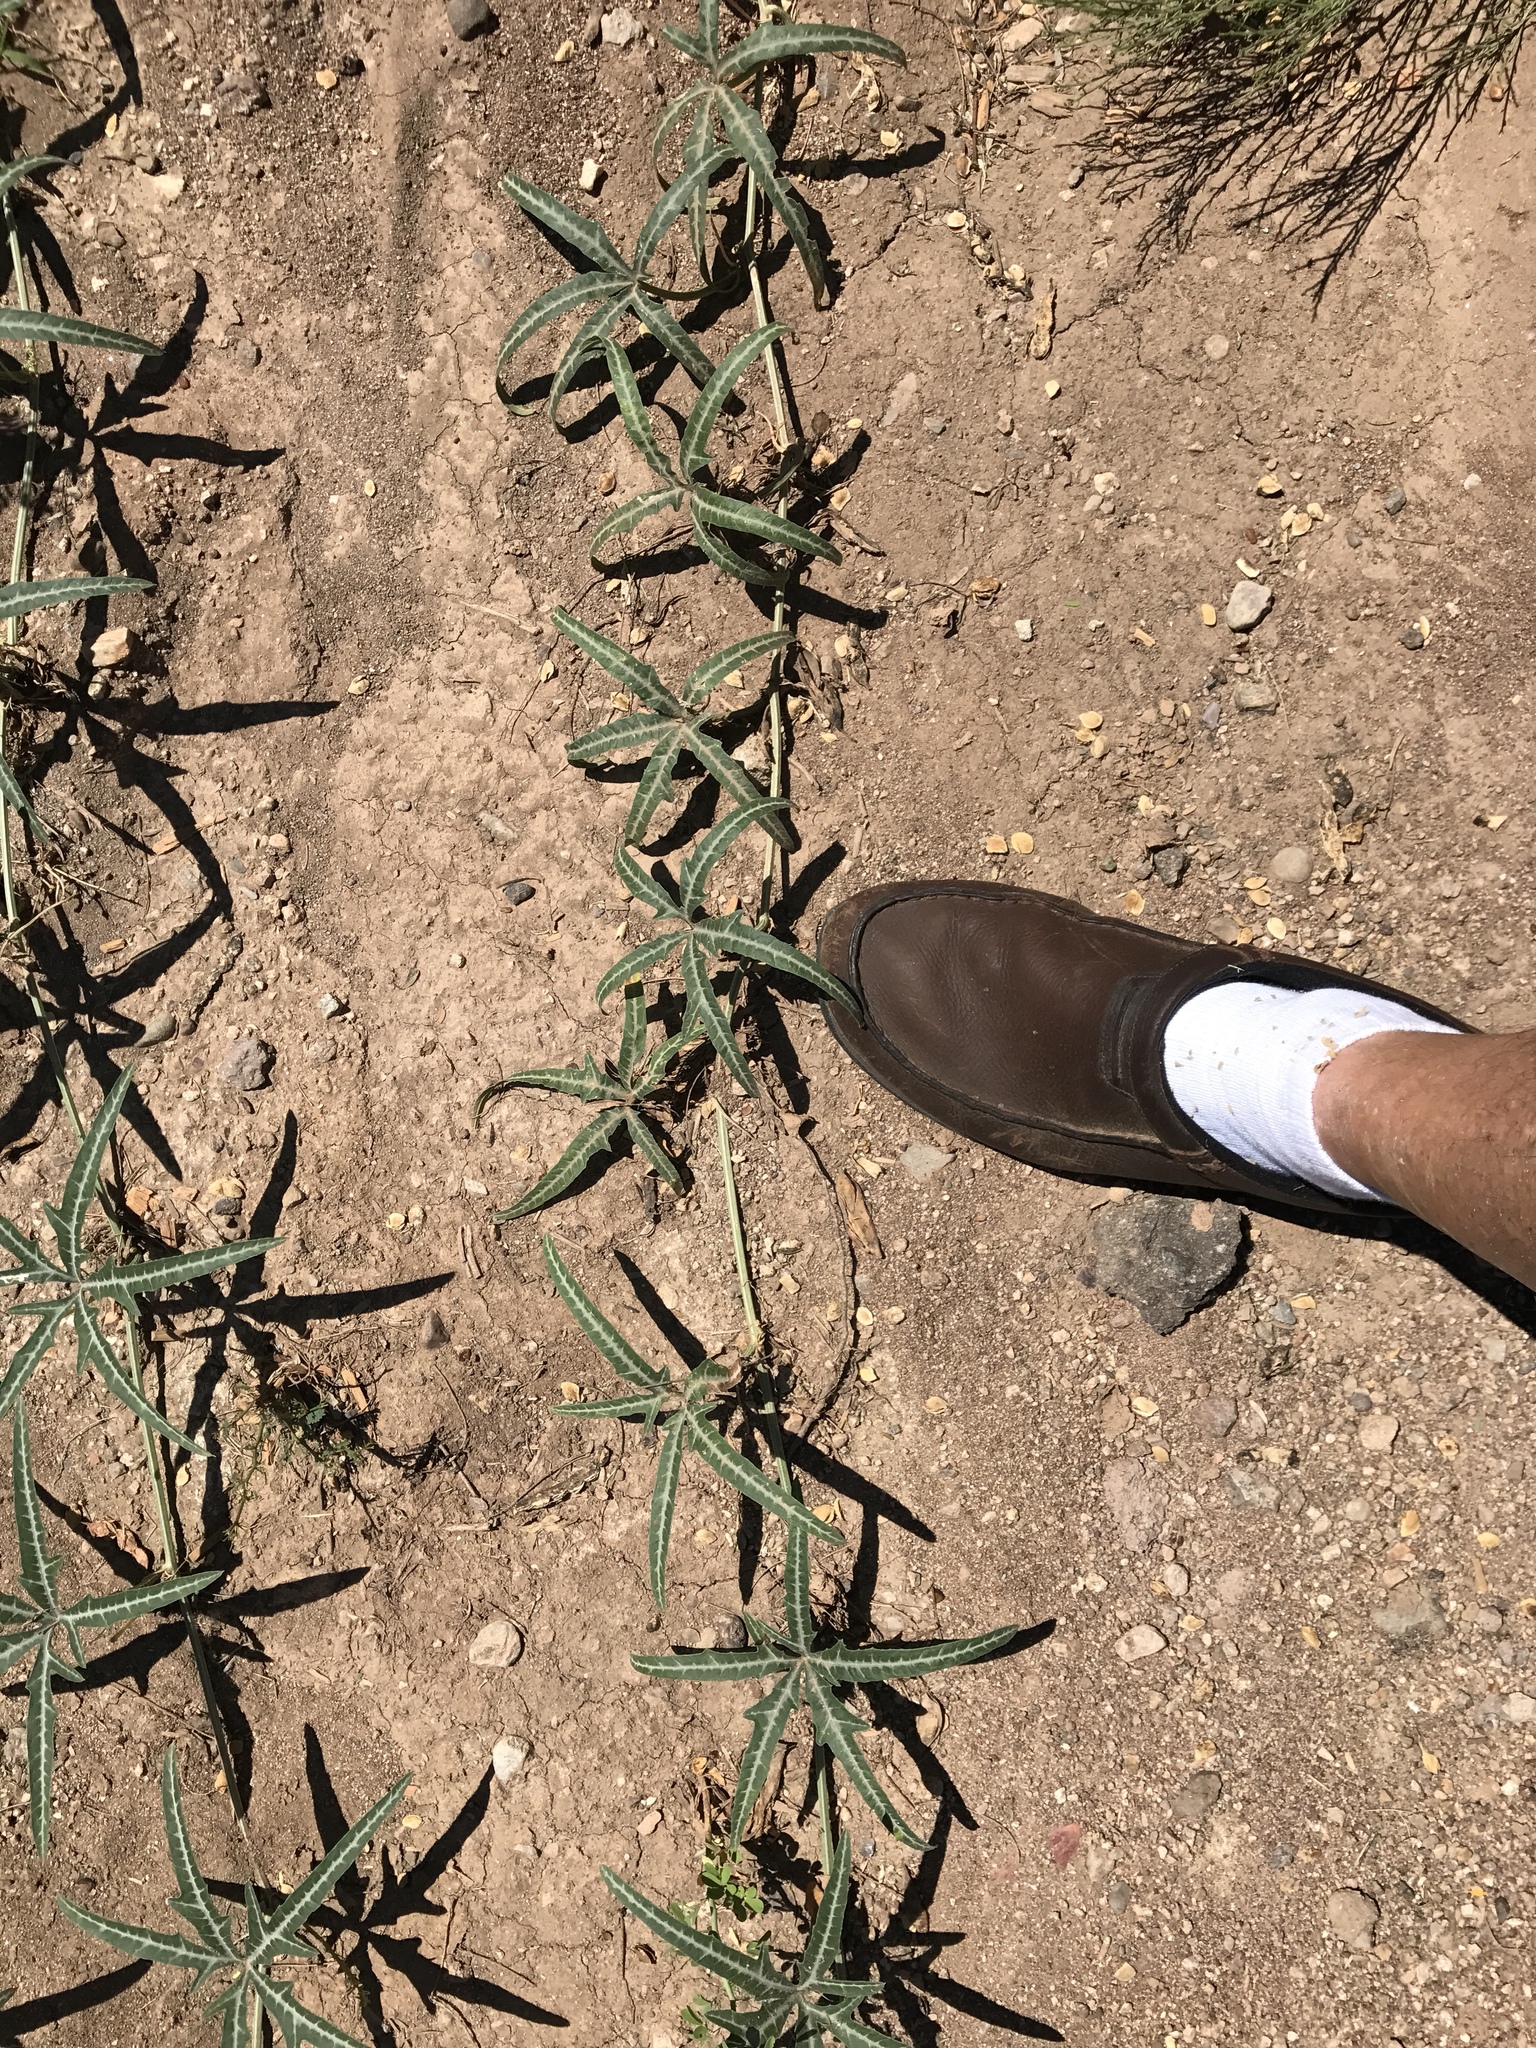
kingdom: Plantae
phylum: Tracheophyta
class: Magnoliopsida
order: Cucurbitales
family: Cucurbitaceae
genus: Cucurbita
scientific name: Cucurbita digitata
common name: Finger-leaf gourd
